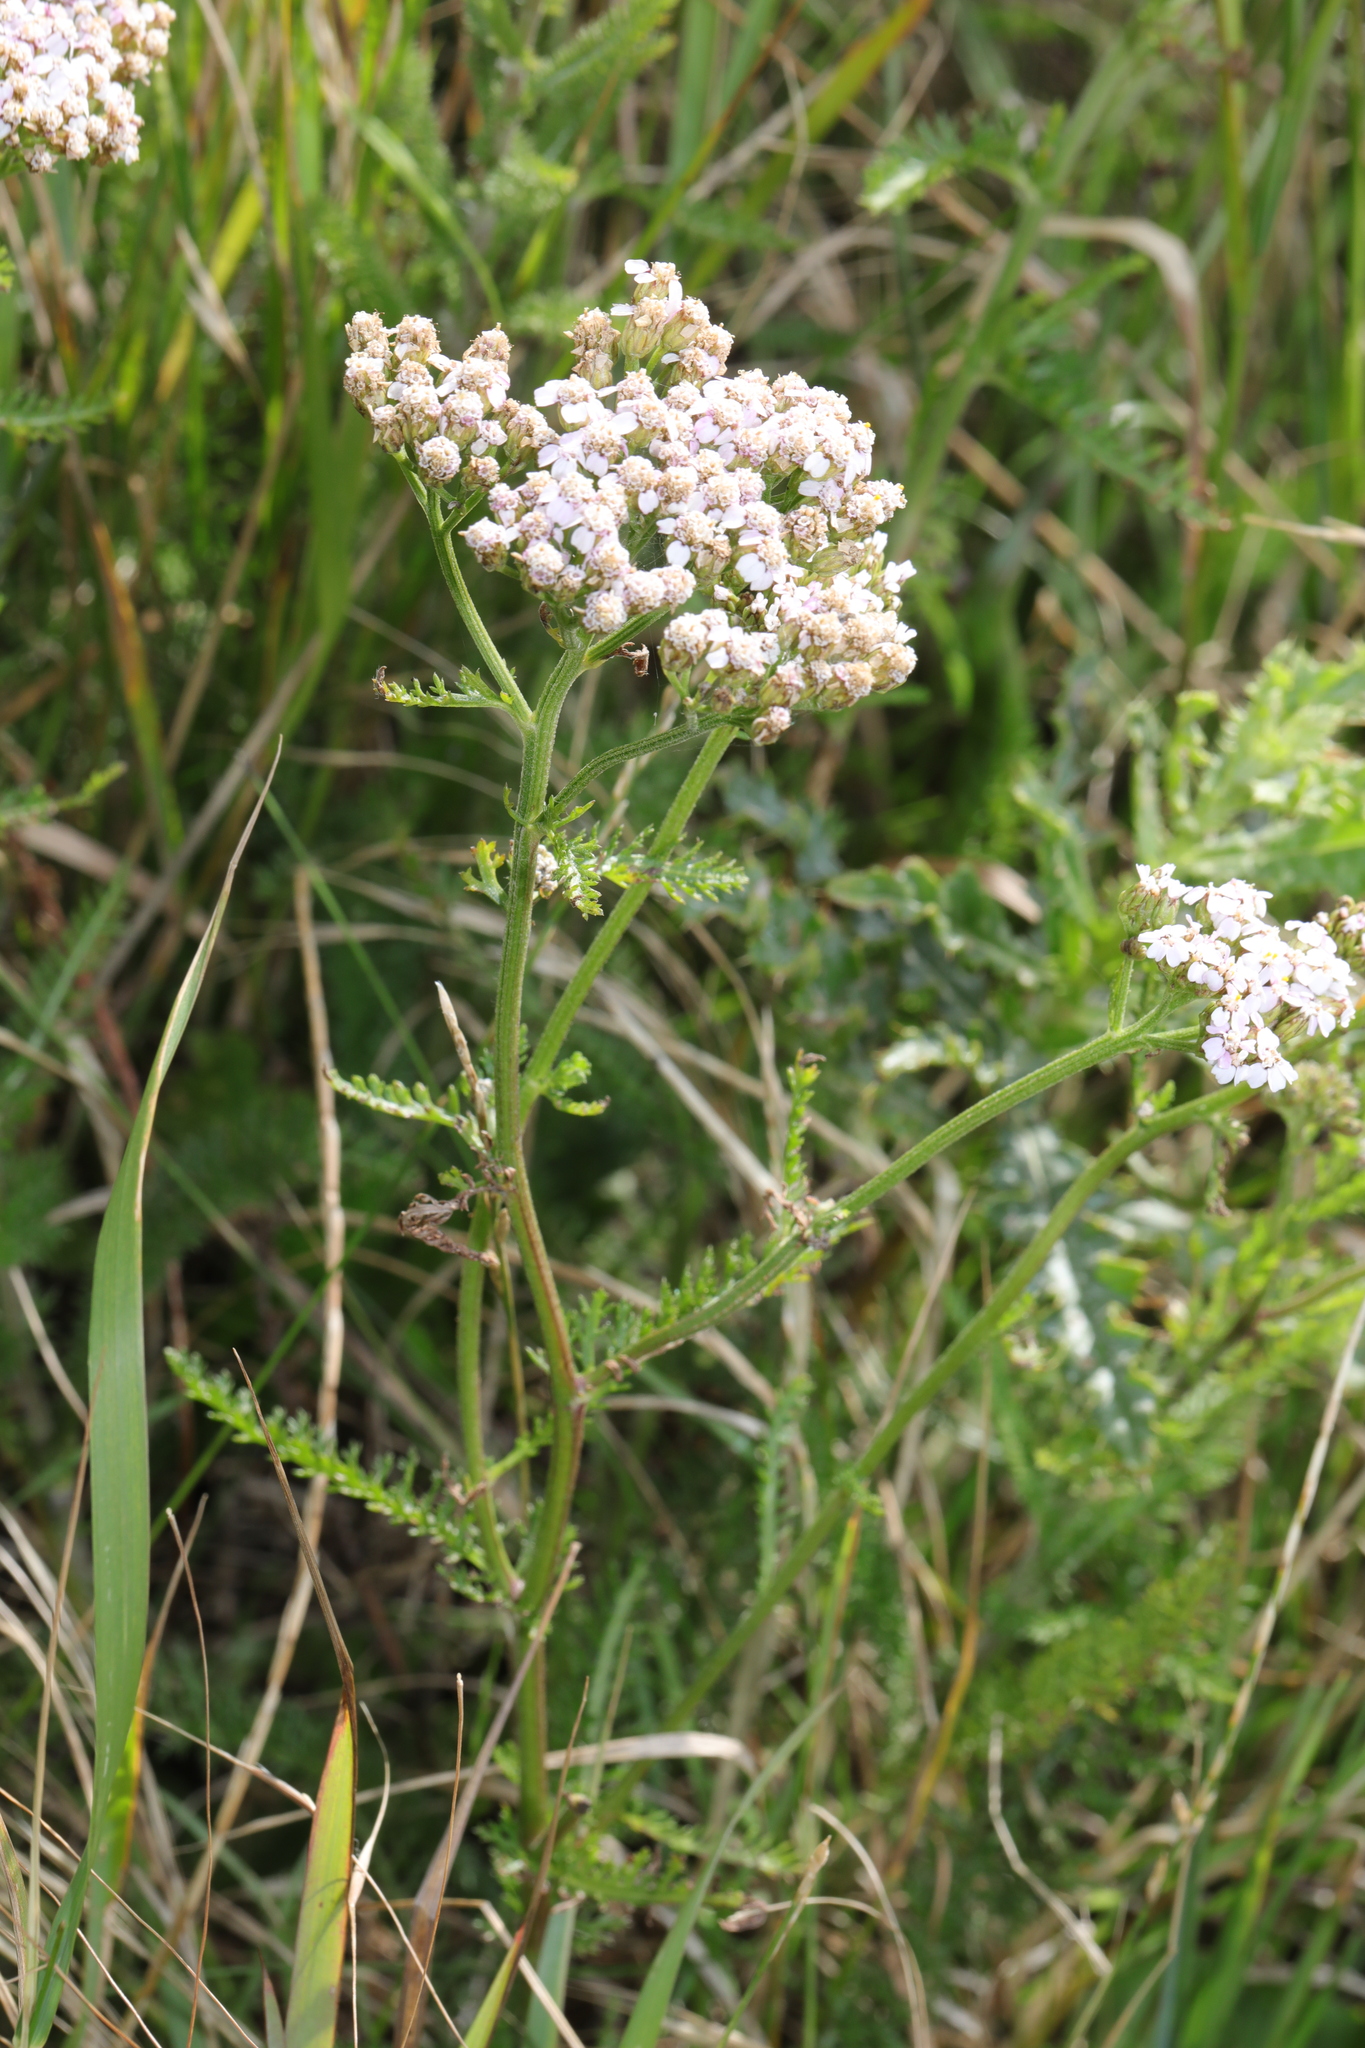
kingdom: Plantae
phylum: Tracheophyta
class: Magnoliopsida
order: Asterales
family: Asteraceae
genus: Achillea
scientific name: Achillea millefolium
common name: Yarrow
